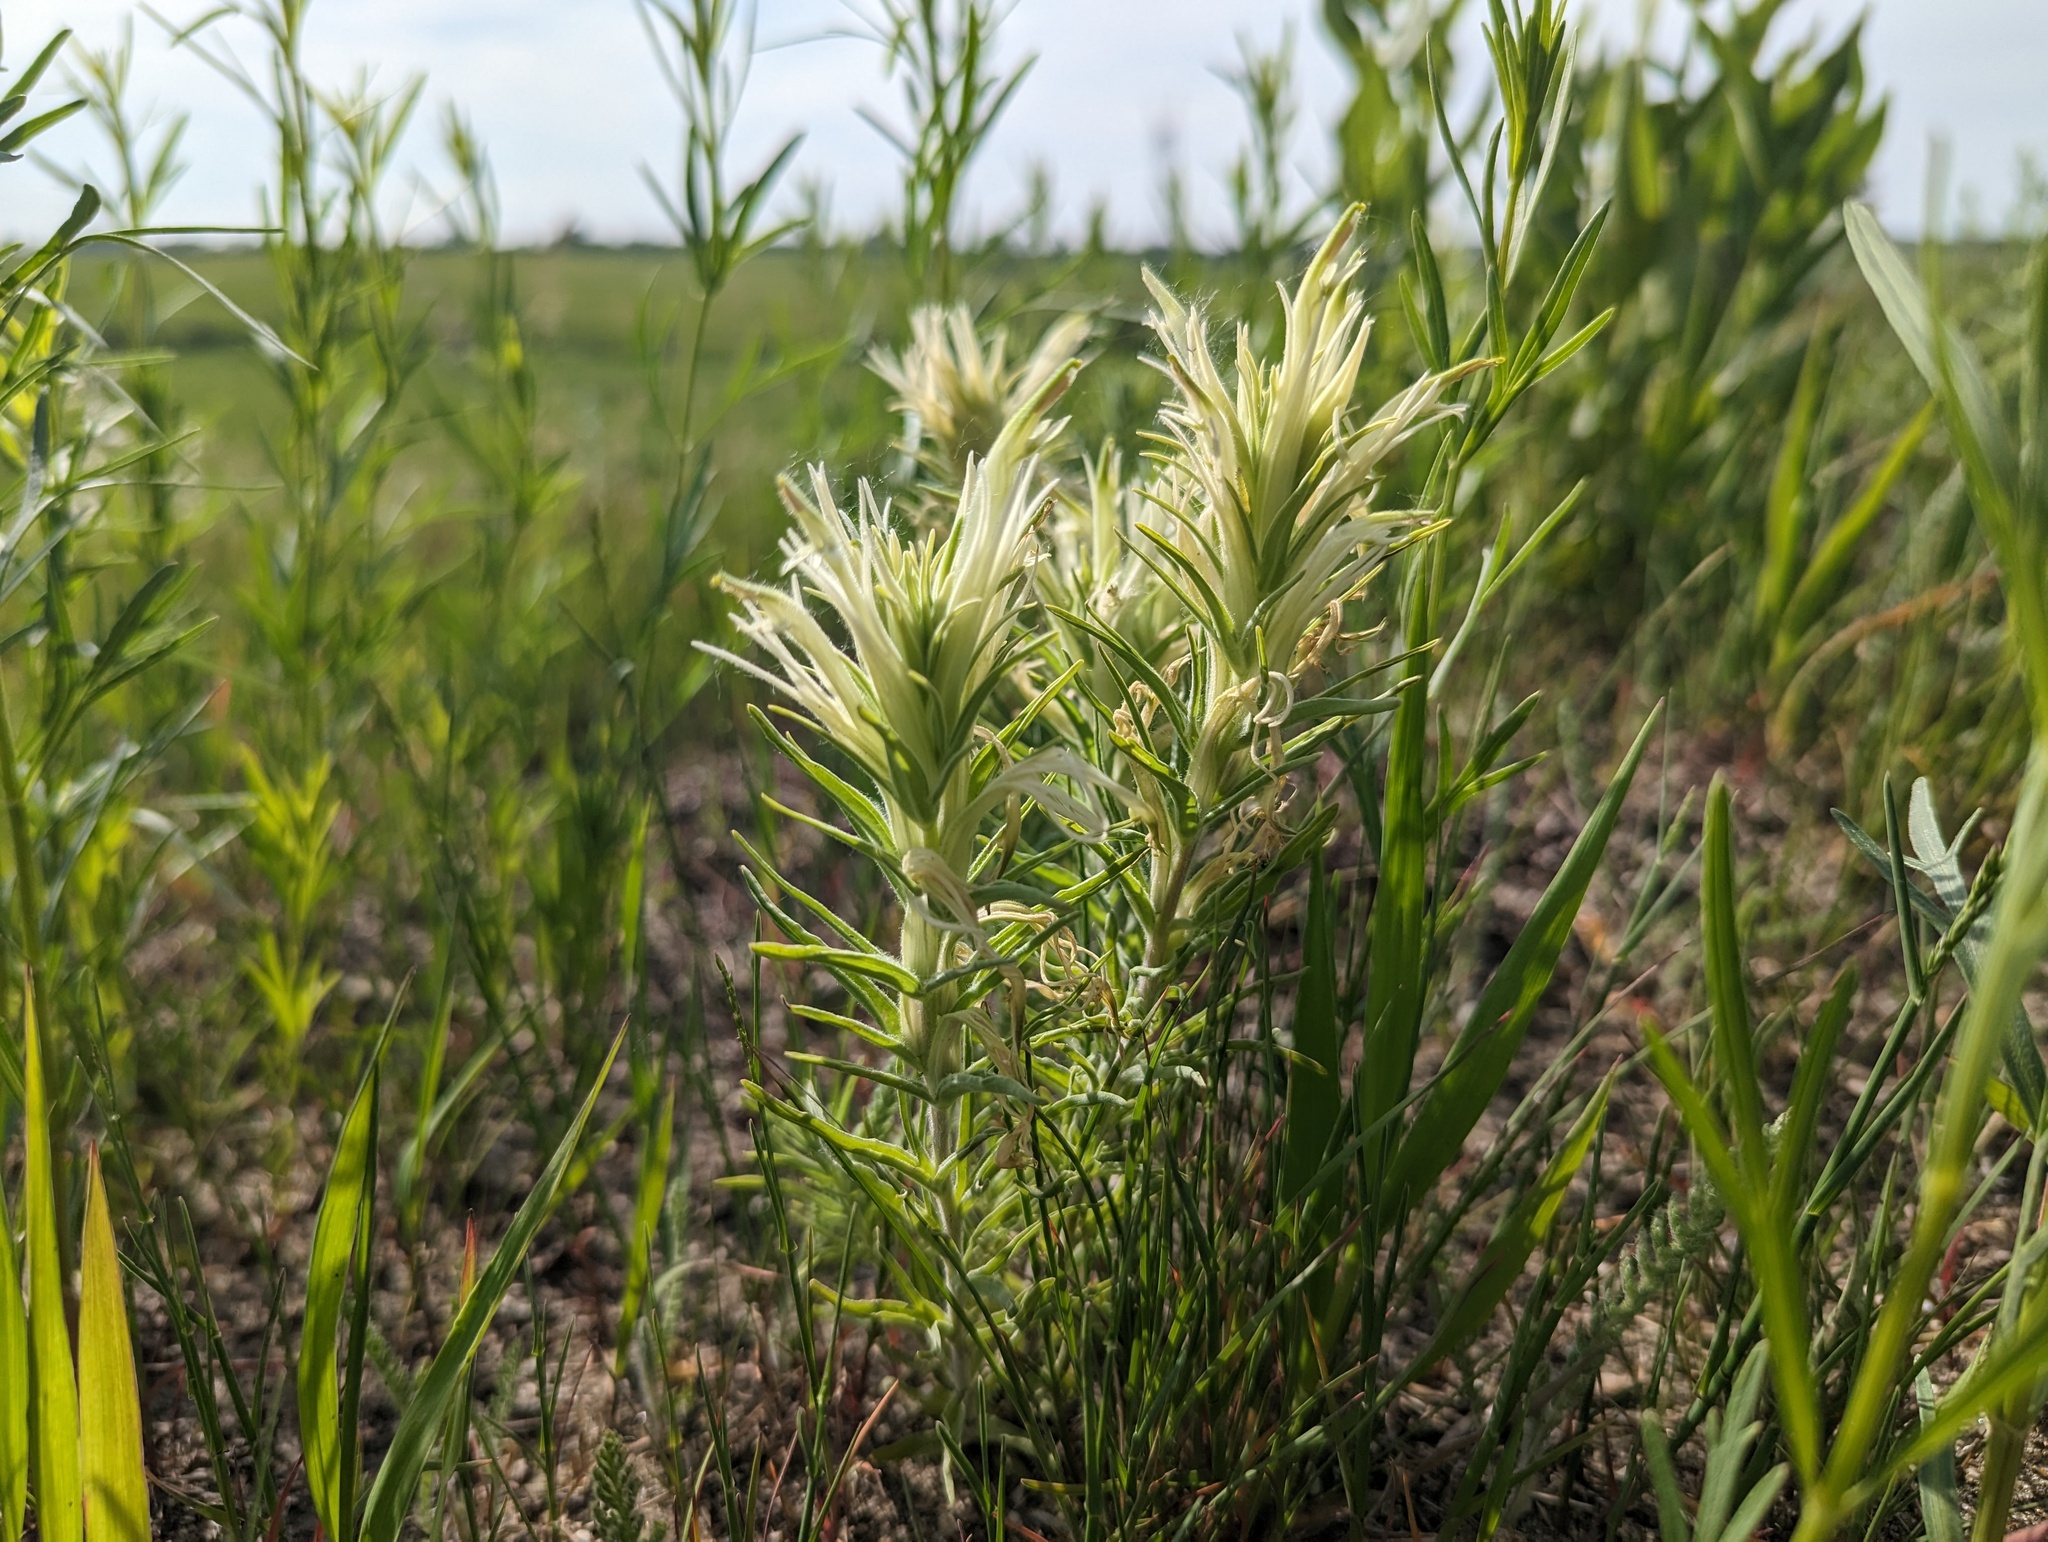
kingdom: Plantae
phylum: Tracheophyta
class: Magnoliopsida
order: Lamiales
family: Orobanchaceae
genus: Castilleja
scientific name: Castilleja sessiliflora
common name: Downy paintbrush
